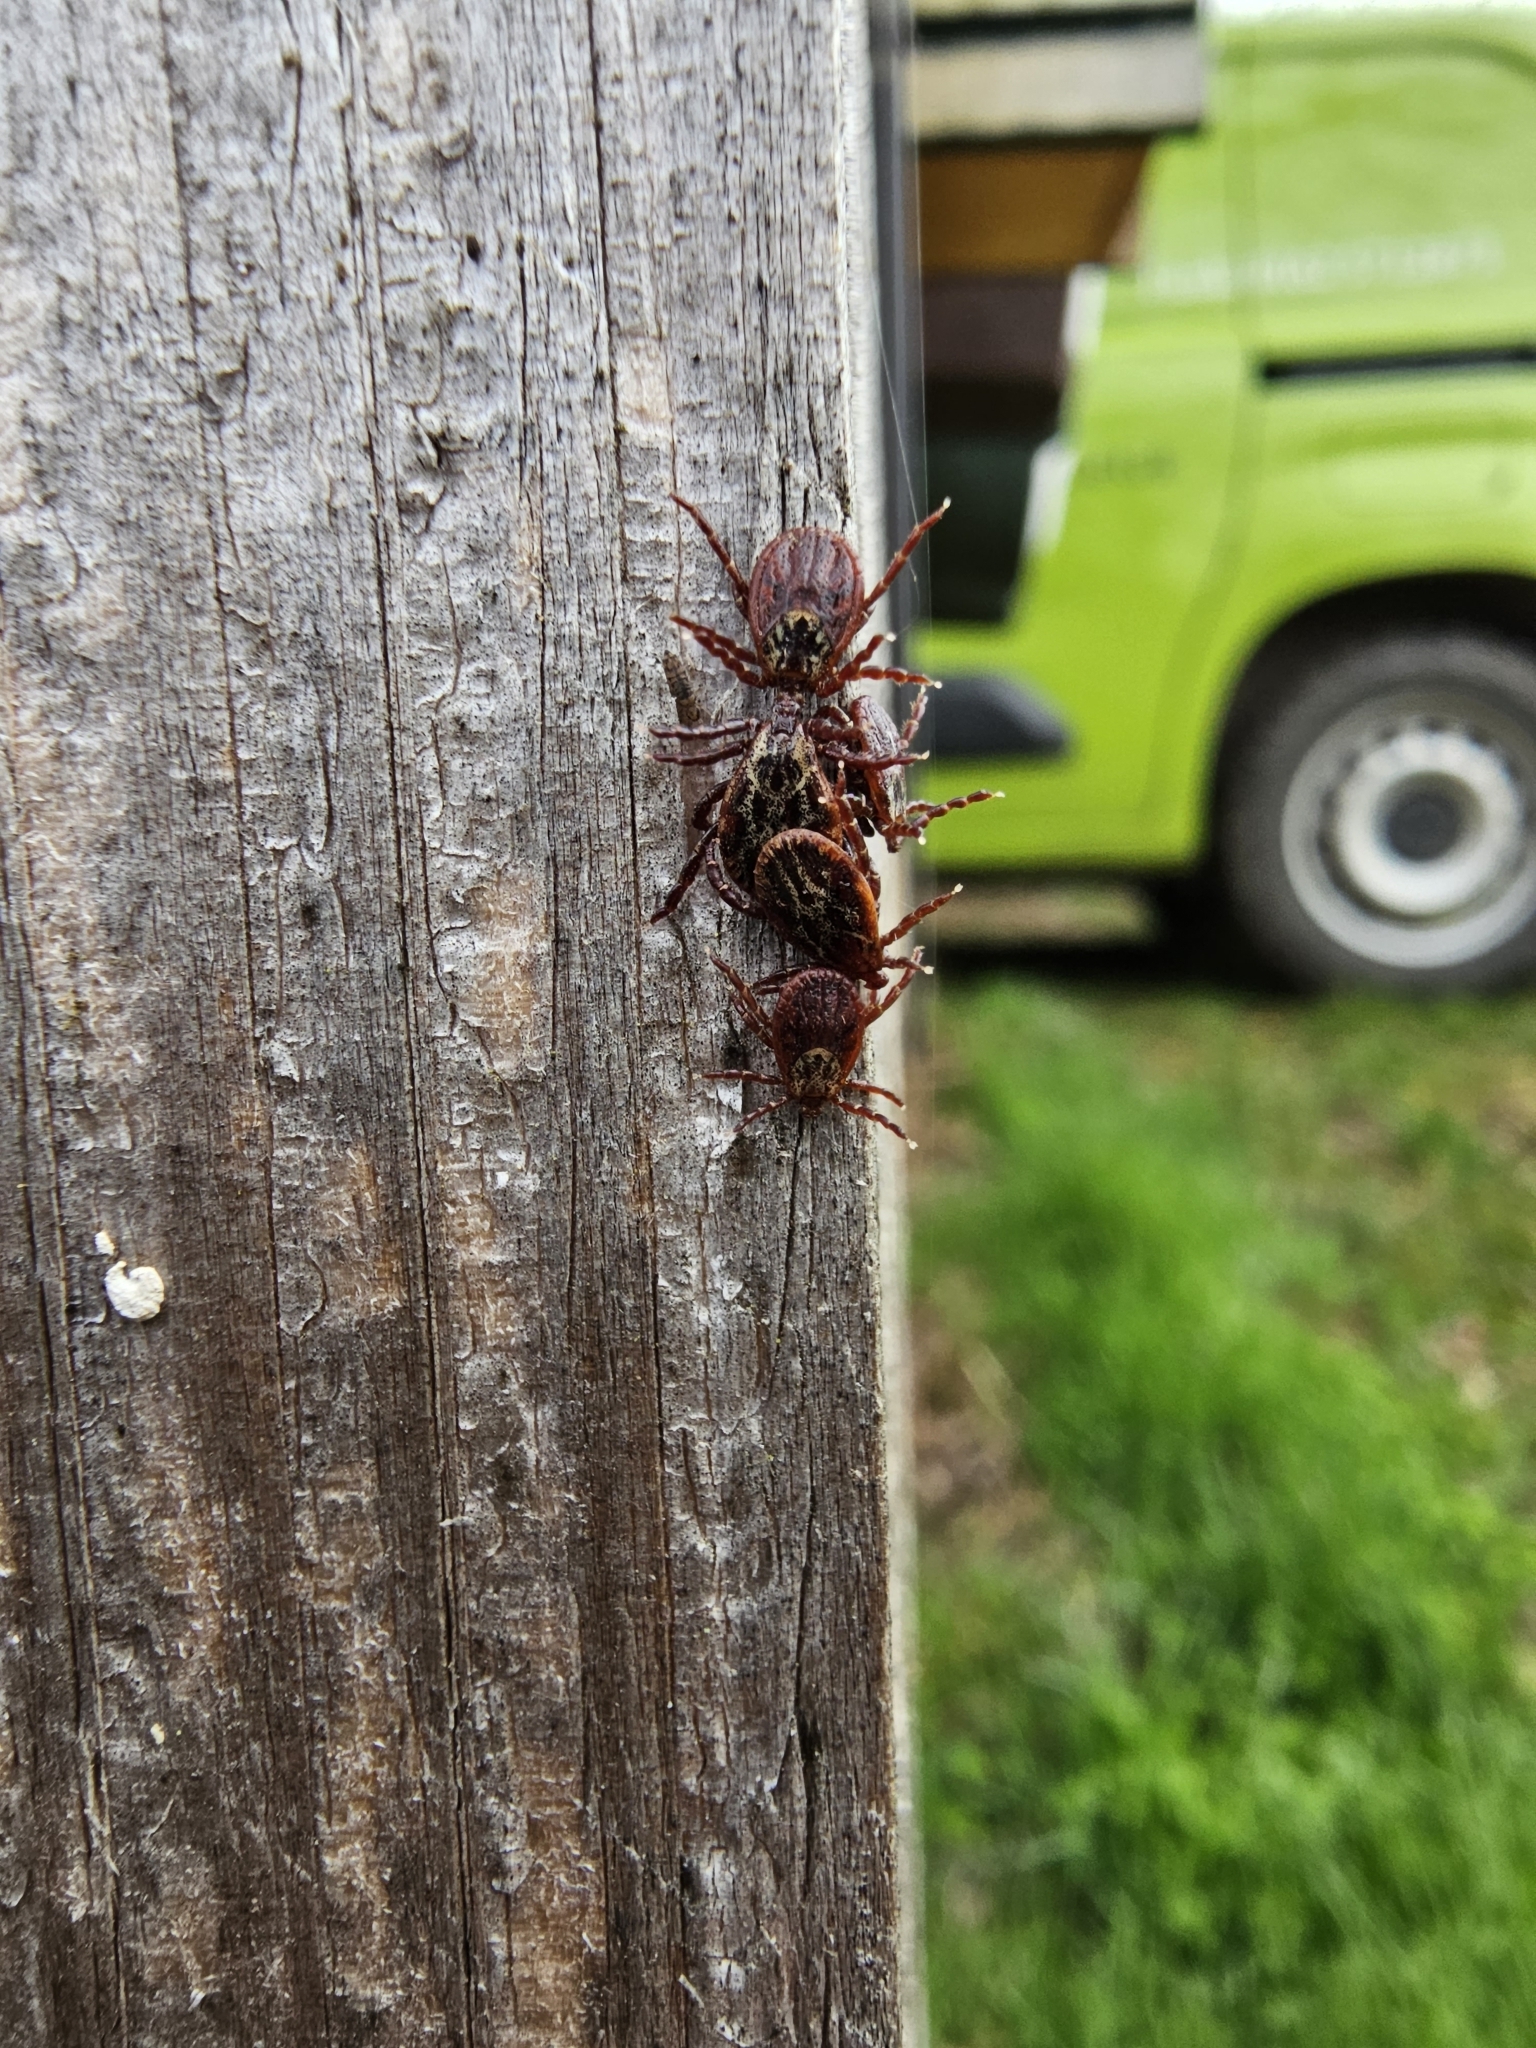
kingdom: Animalia
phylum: Arthropoda
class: Arachnida
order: Ixodida
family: Ixodidae
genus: Dermacentor
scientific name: Dermacentor reticulatus
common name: Ornate cow tick
